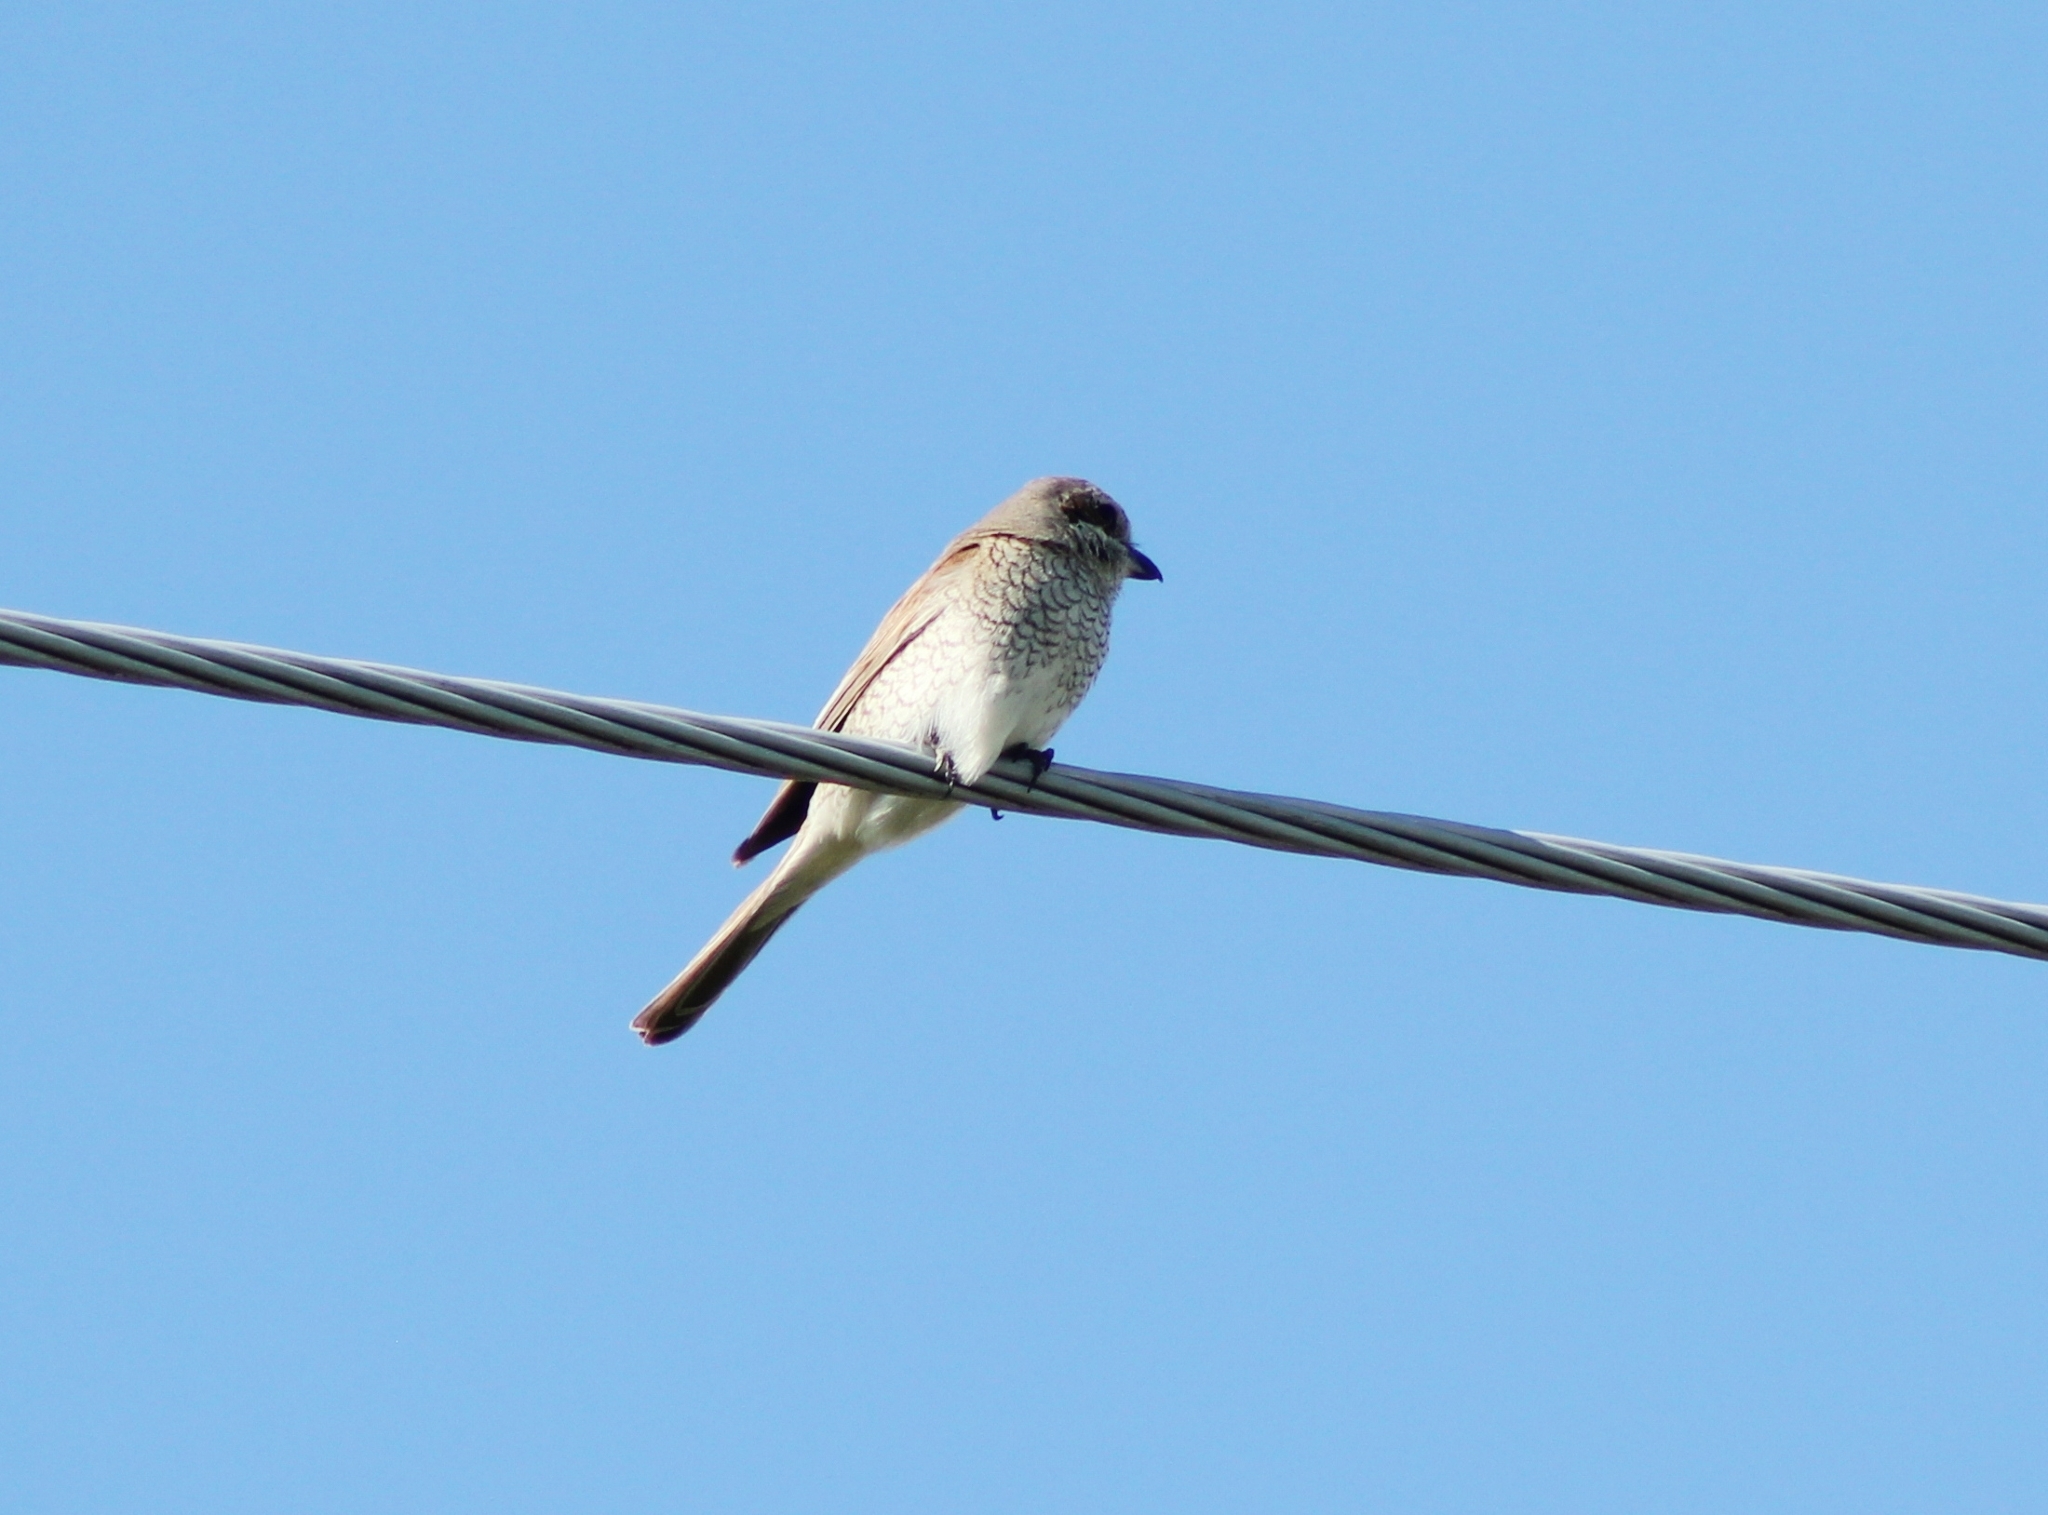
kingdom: Animalia
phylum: Chordata
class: Aves
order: Passeriformes
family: Laniidae
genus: Lanius
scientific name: Lanius collurio
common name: Red-backed shrike
